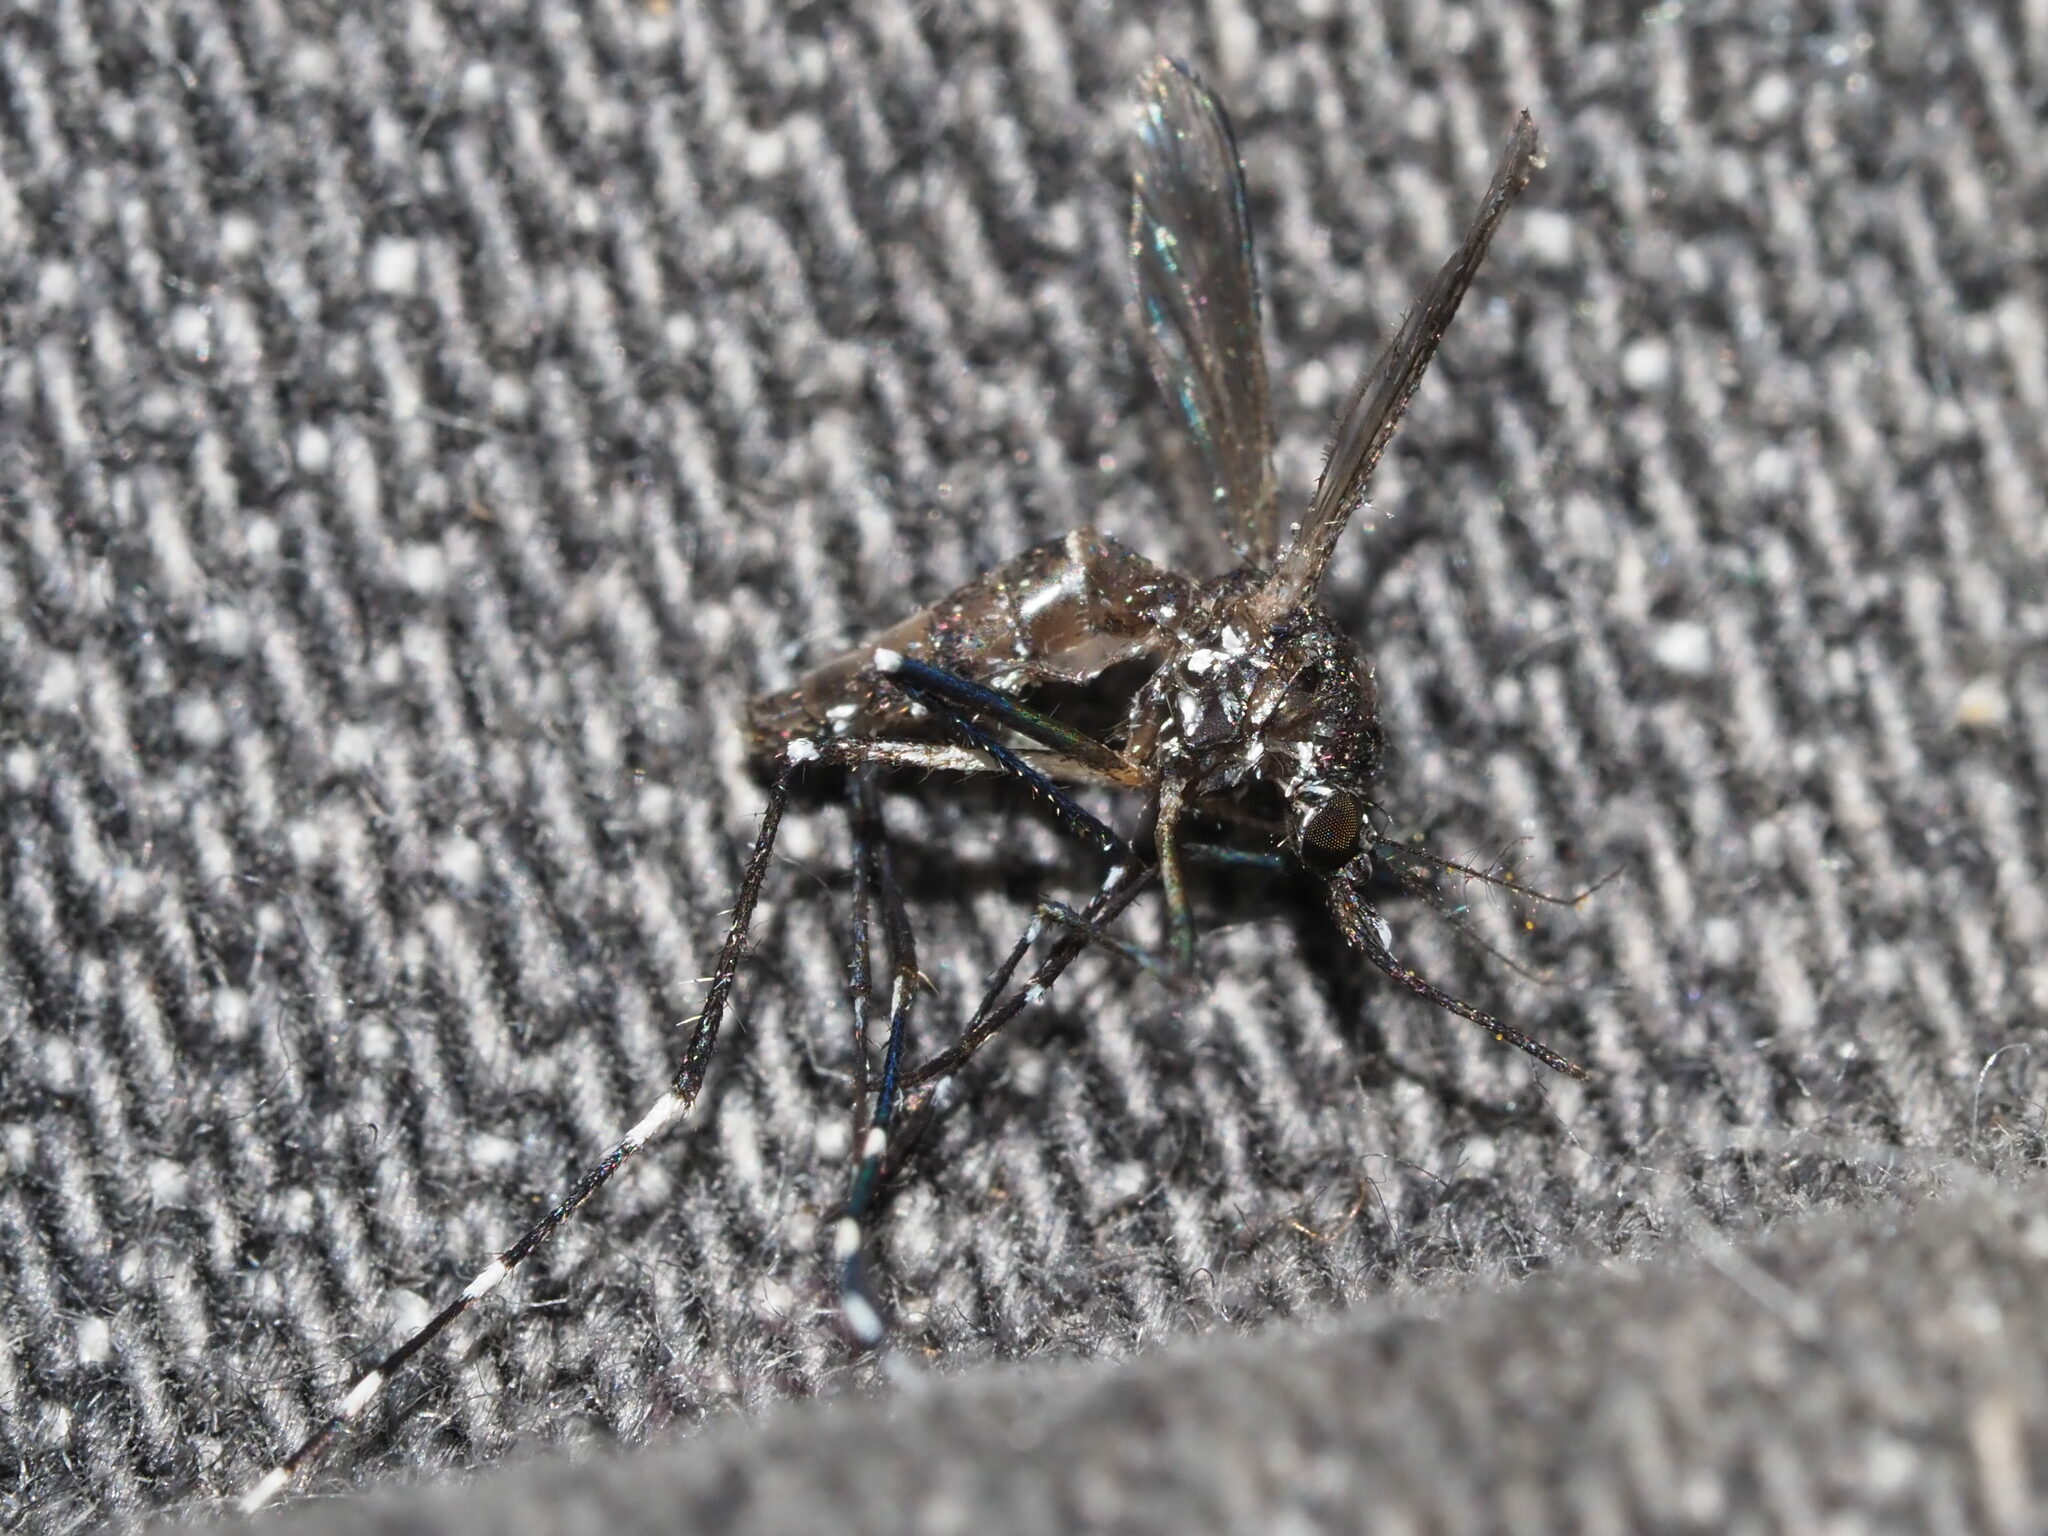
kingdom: Animalia
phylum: Arthropoda
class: Insecta
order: Diptera
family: Culicidae
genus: Aedes
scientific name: Aedes albopictus
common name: Tiger mosquito
